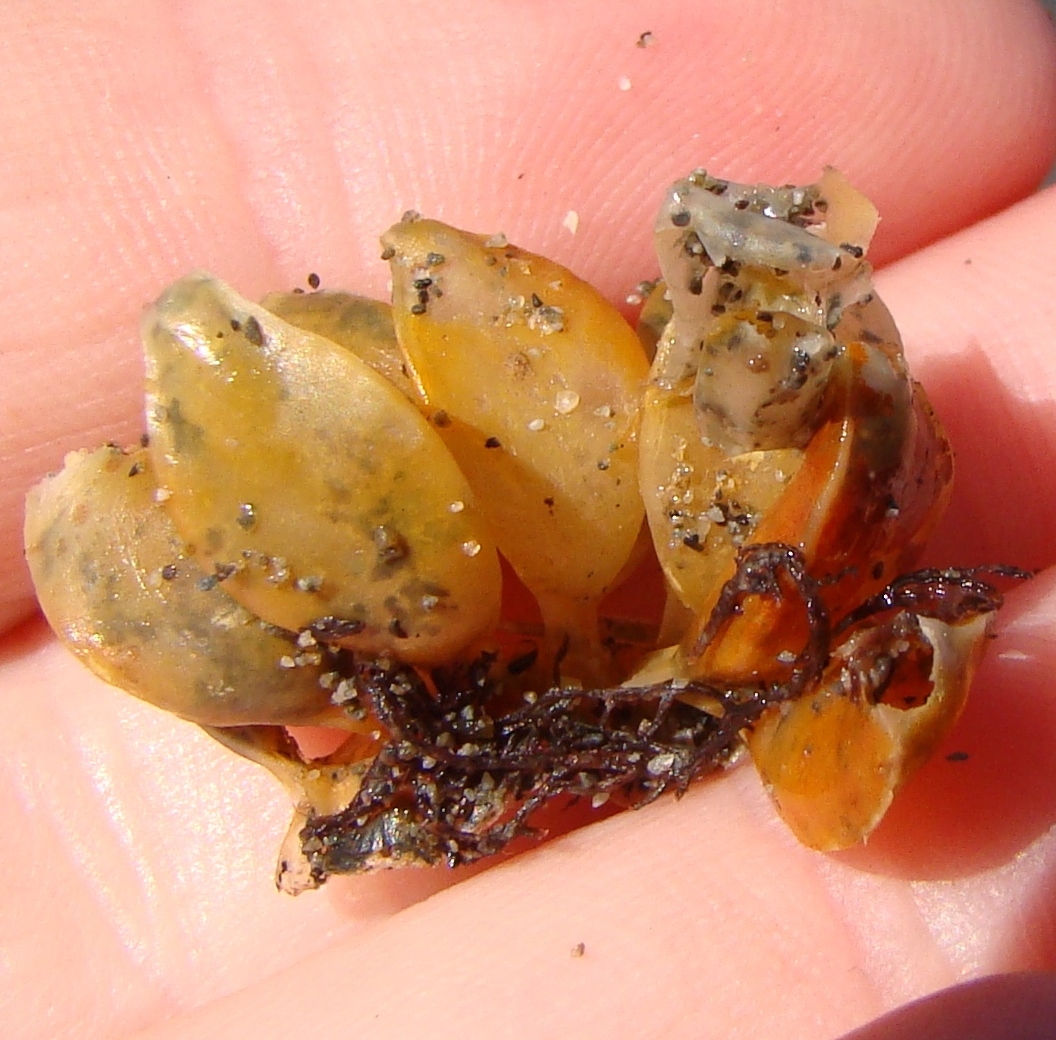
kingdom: Animalia
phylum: Mollusca
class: Gastropoda
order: Neogastropoda
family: Cominellidae
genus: Cominella
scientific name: Cominella adspersa
